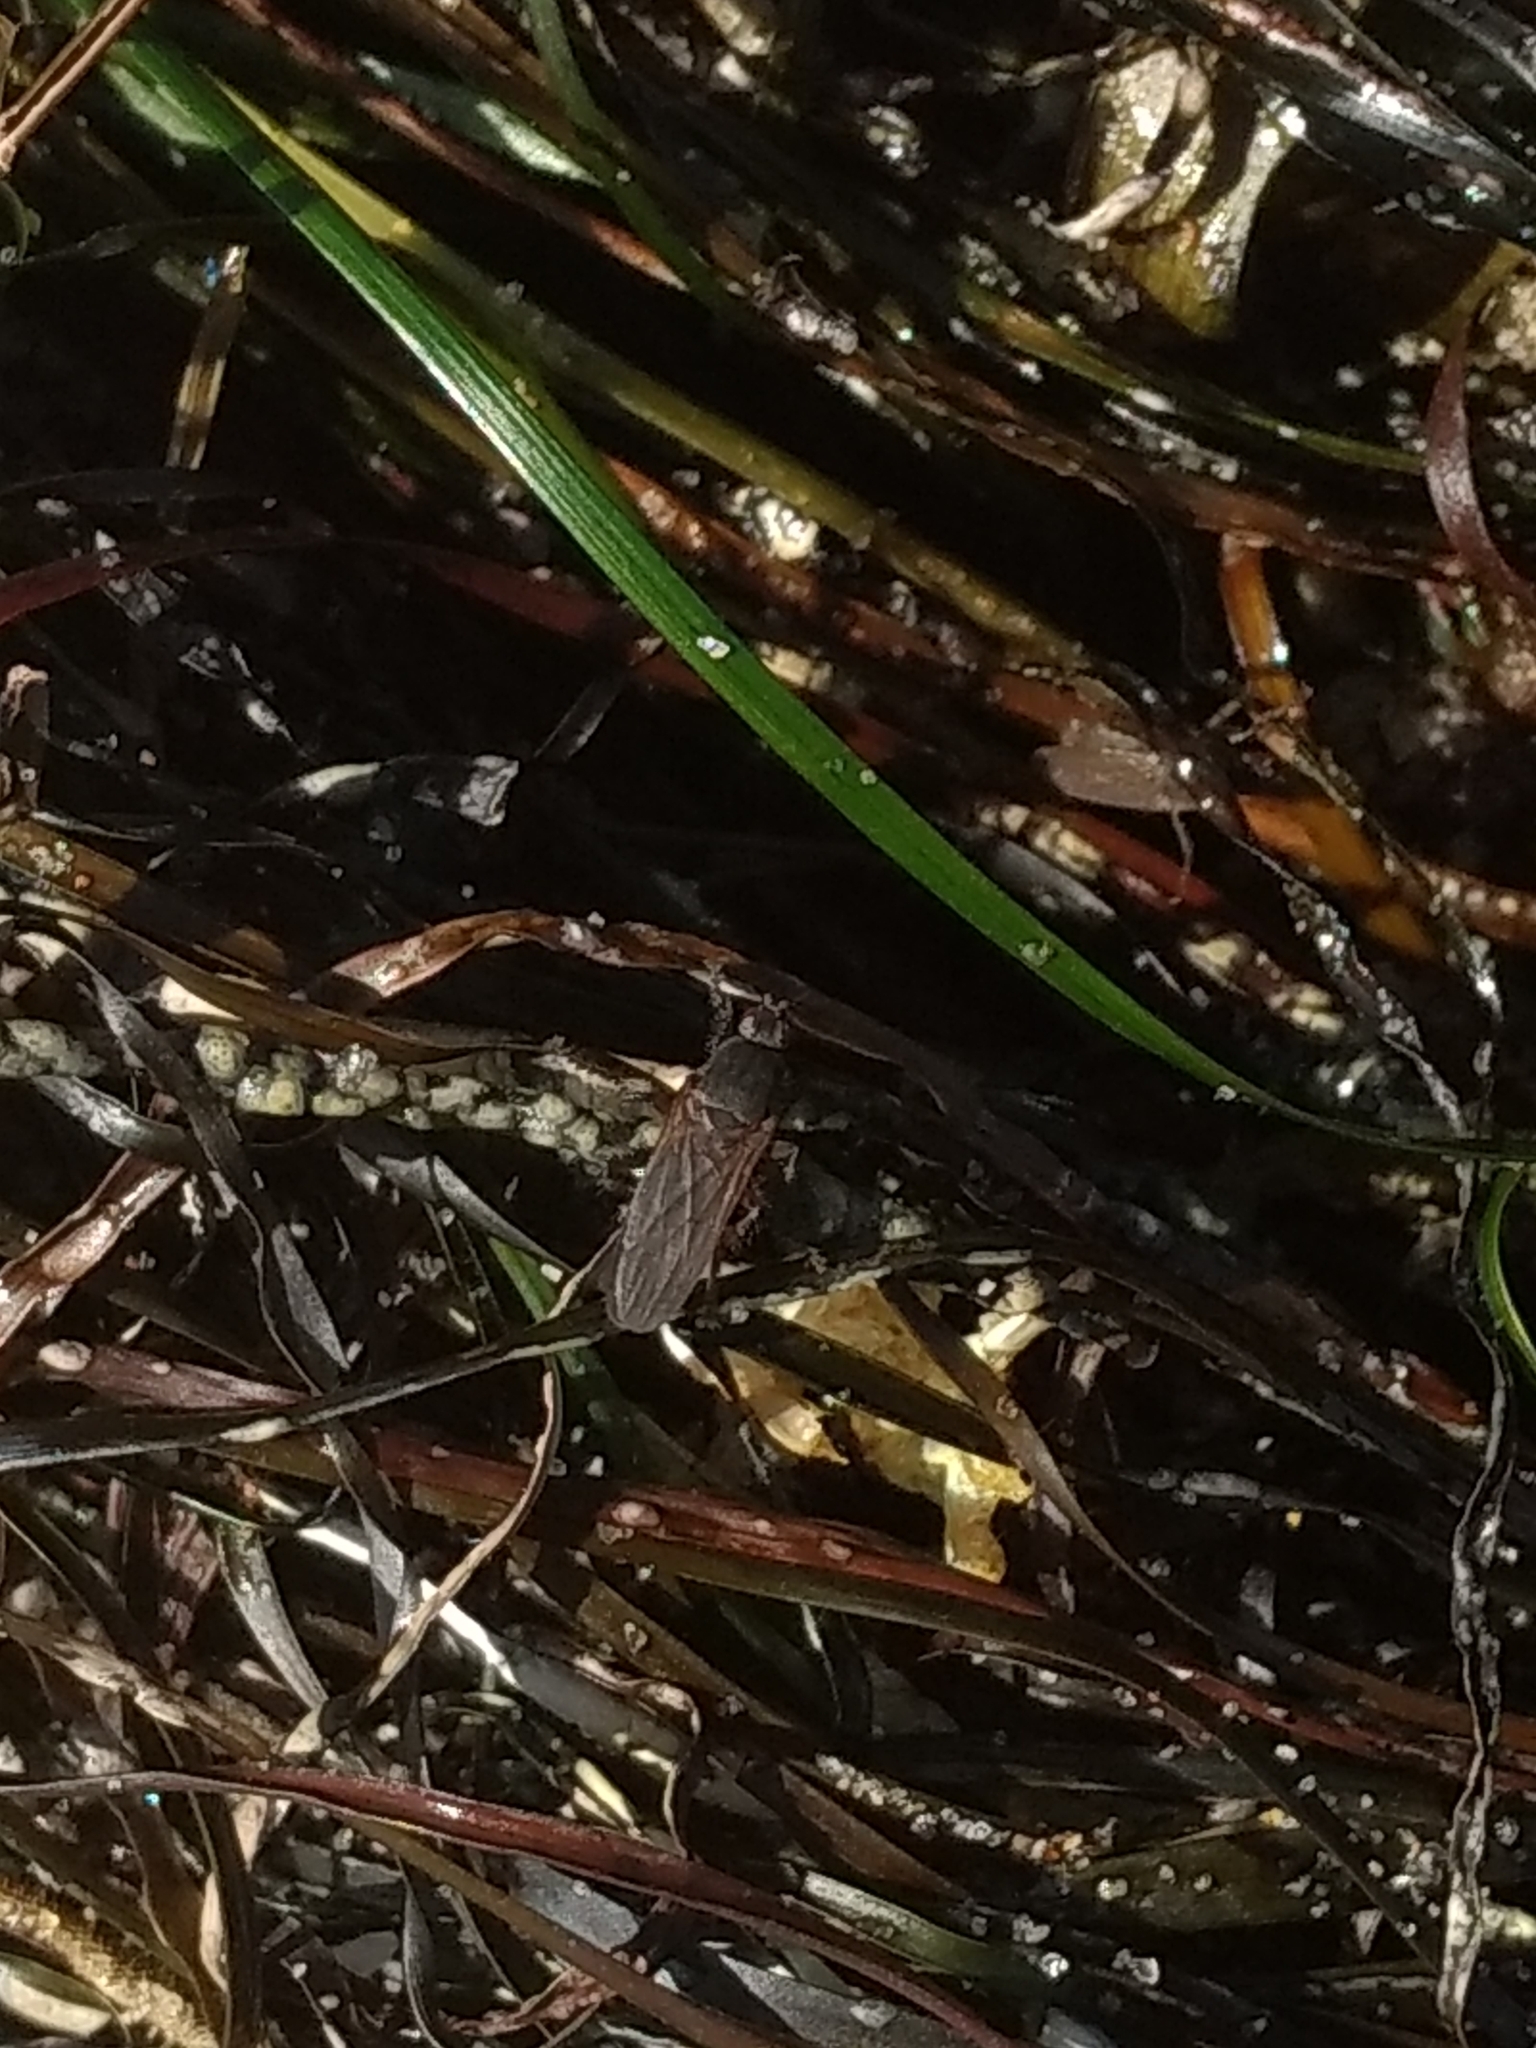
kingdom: Animalia
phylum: Arthropoda
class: Insecta
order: Diptera
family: Coelopidae
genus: Coelopa
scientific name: Coelopa vanduzeei
